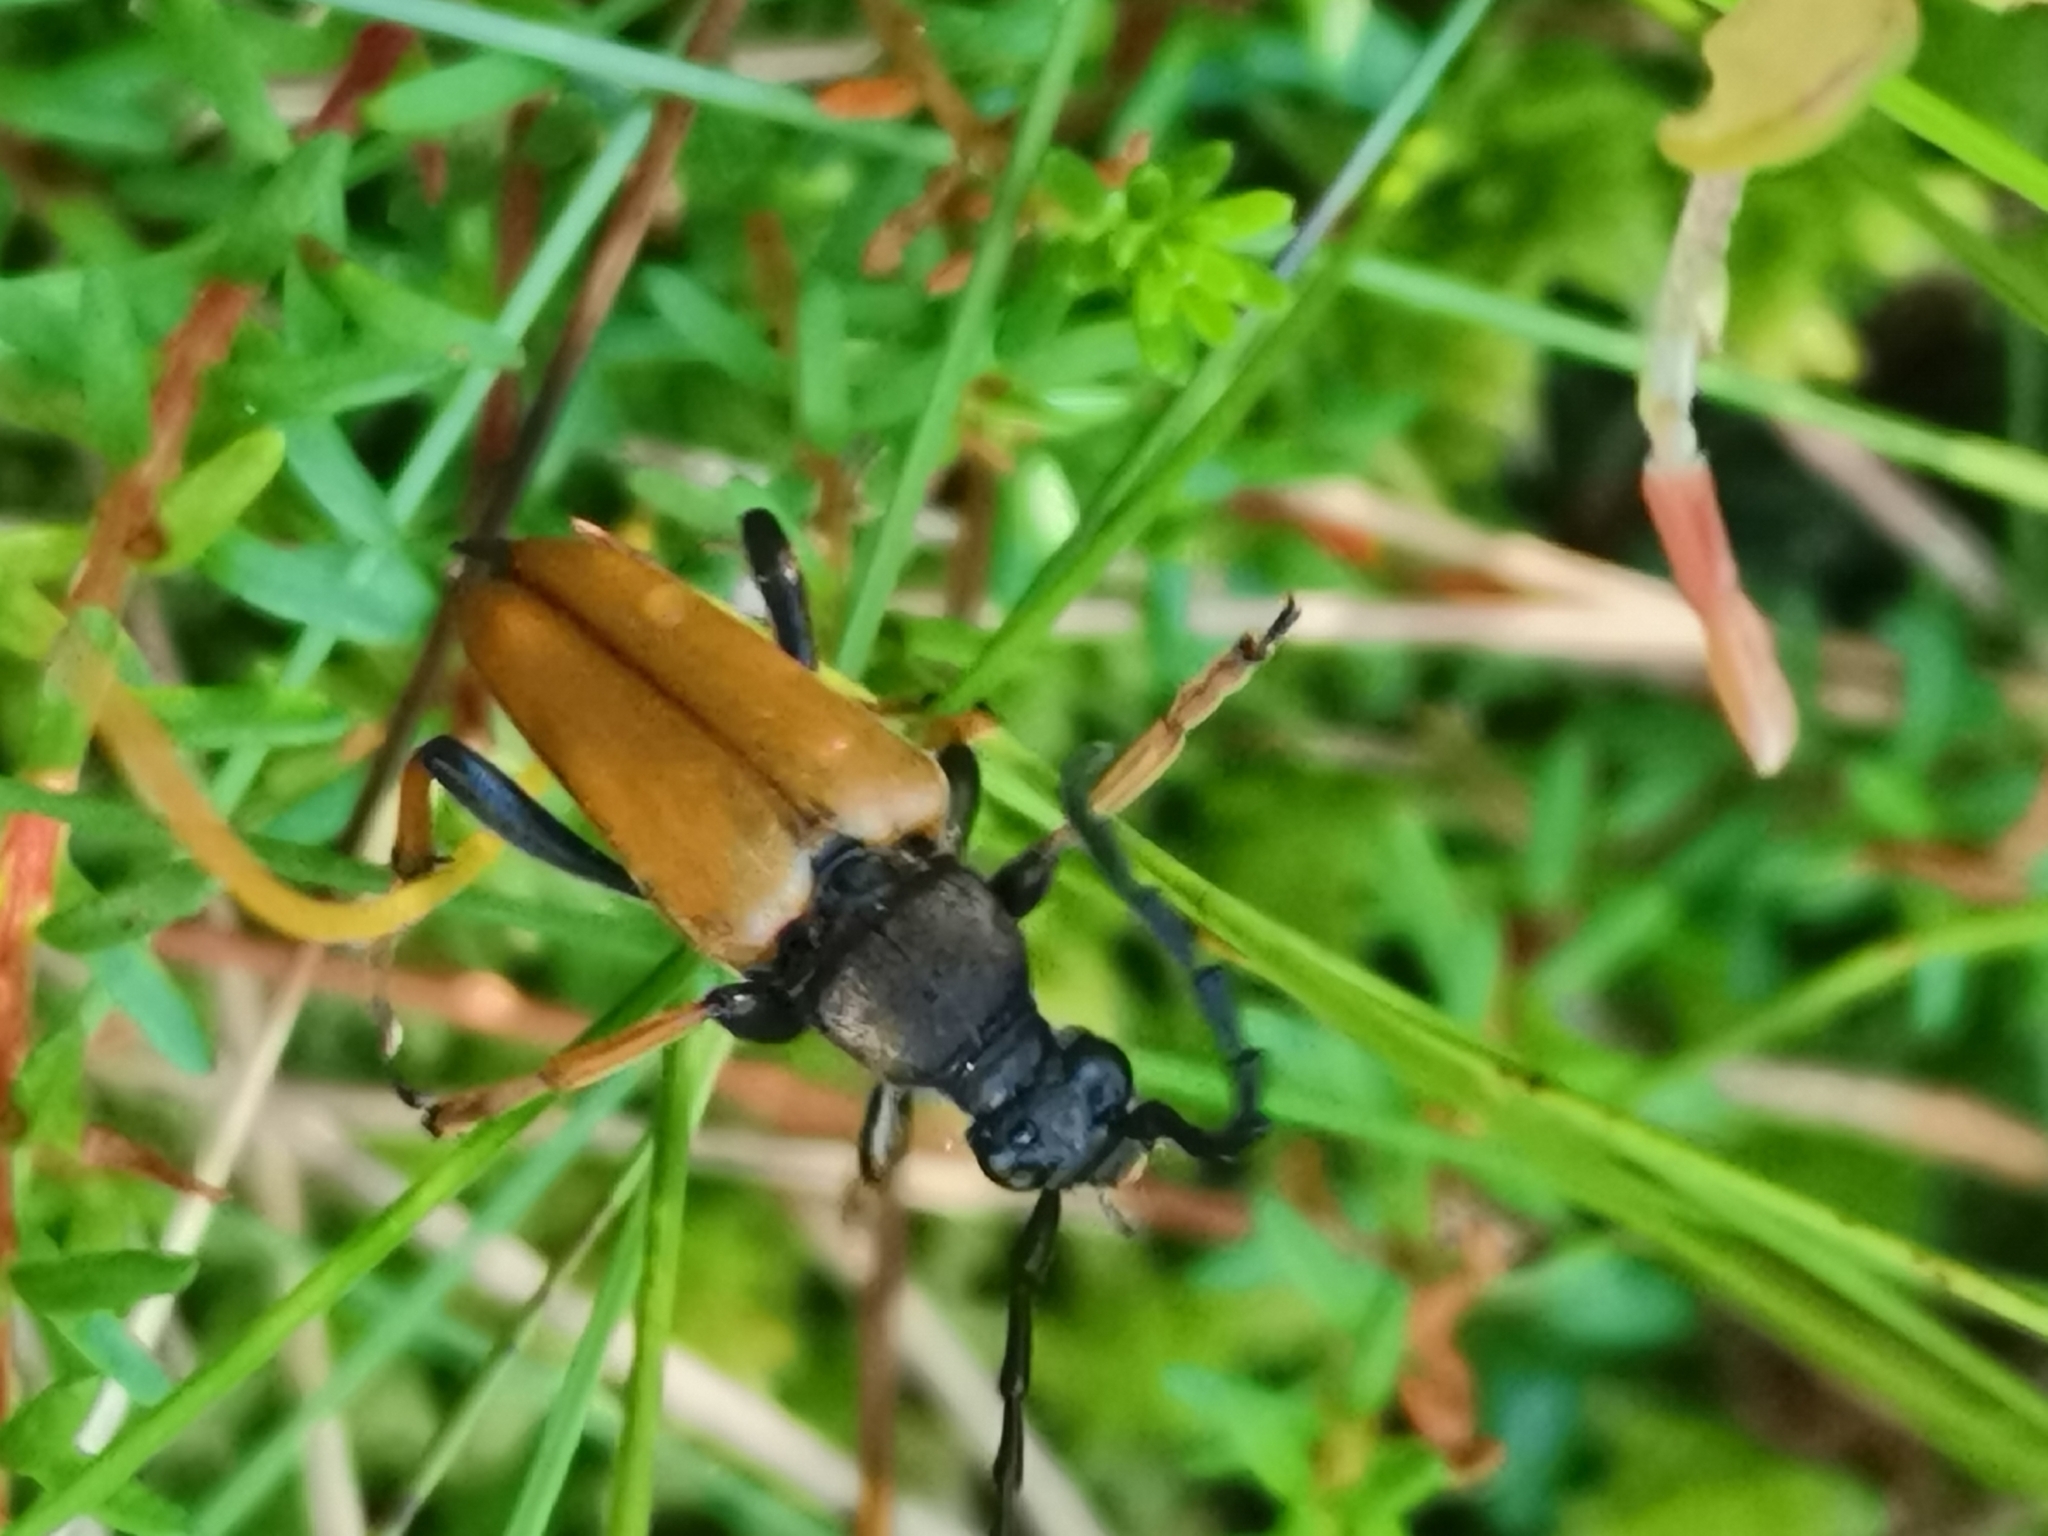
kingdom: Animalia
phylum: Arthropoda
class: Insecta
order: Coleoptera
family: Cerambycidae
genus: Stictoleptura
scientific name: Stictoleptura rubra
